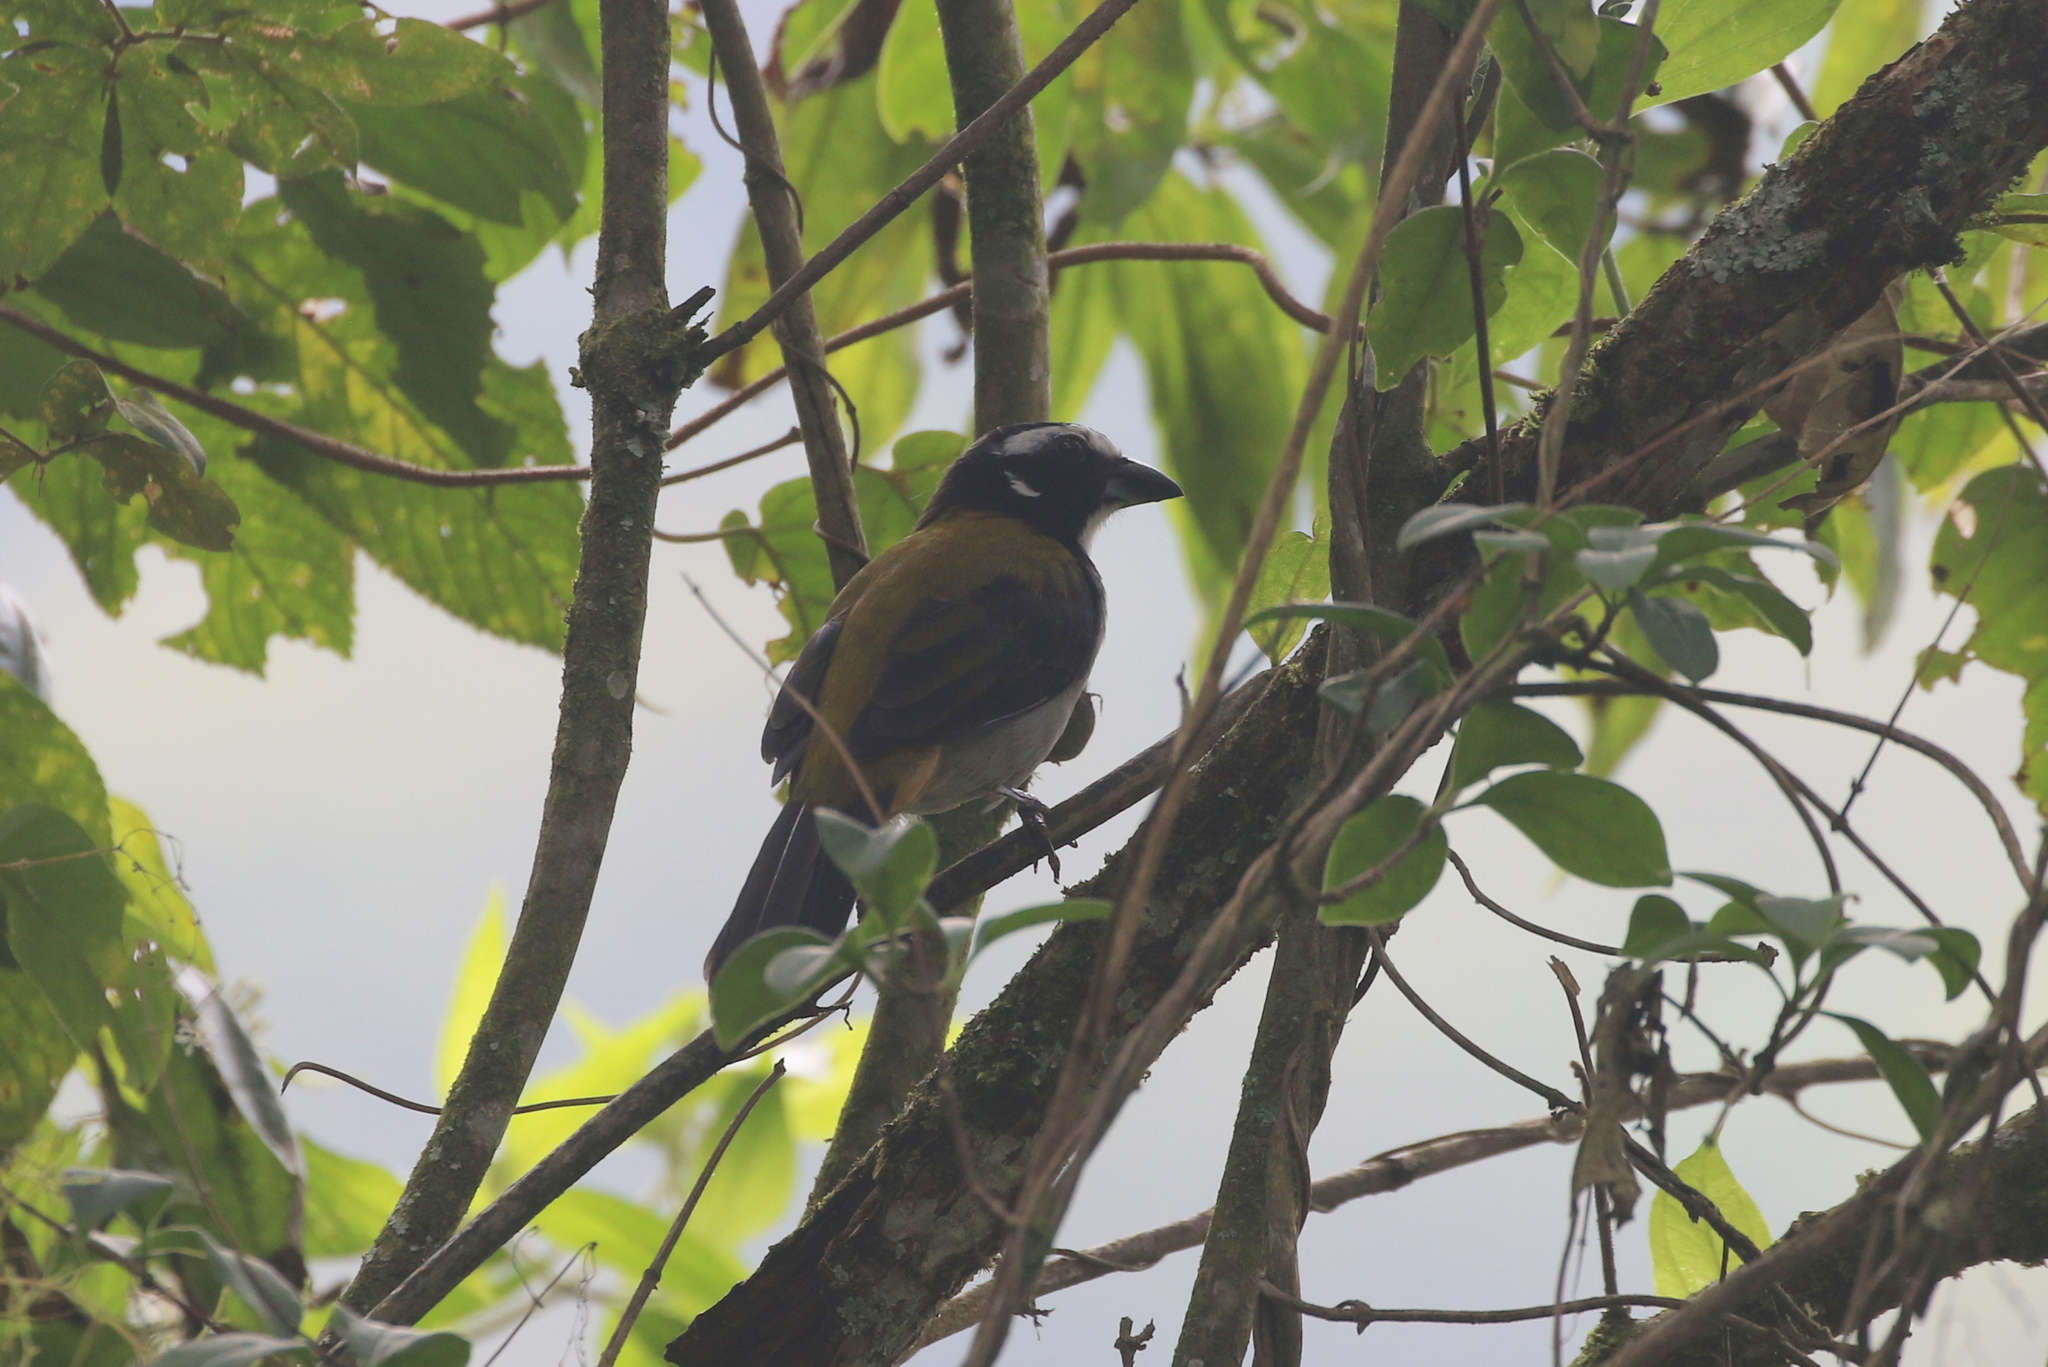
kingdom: Animalia
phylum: Chordata
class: Aves
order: Passeriformes
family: Thraupidae
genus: Saltator
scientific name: Saltator atripennis
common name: Black-winged saltator
